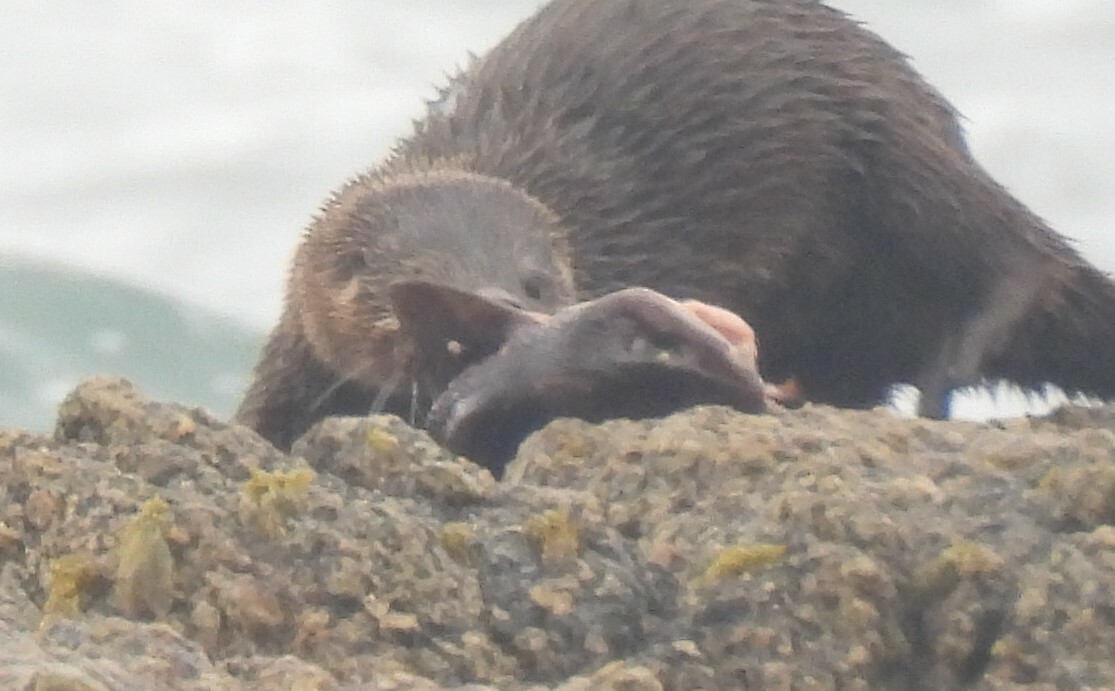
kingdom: Animalia
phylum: Chordata
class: Elasmobranchii
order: Carcharhiniformes
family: Scyliorhinidae
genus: Schroederichthys
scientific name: Schroederichthys chilensis
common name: Redspotted catshark
